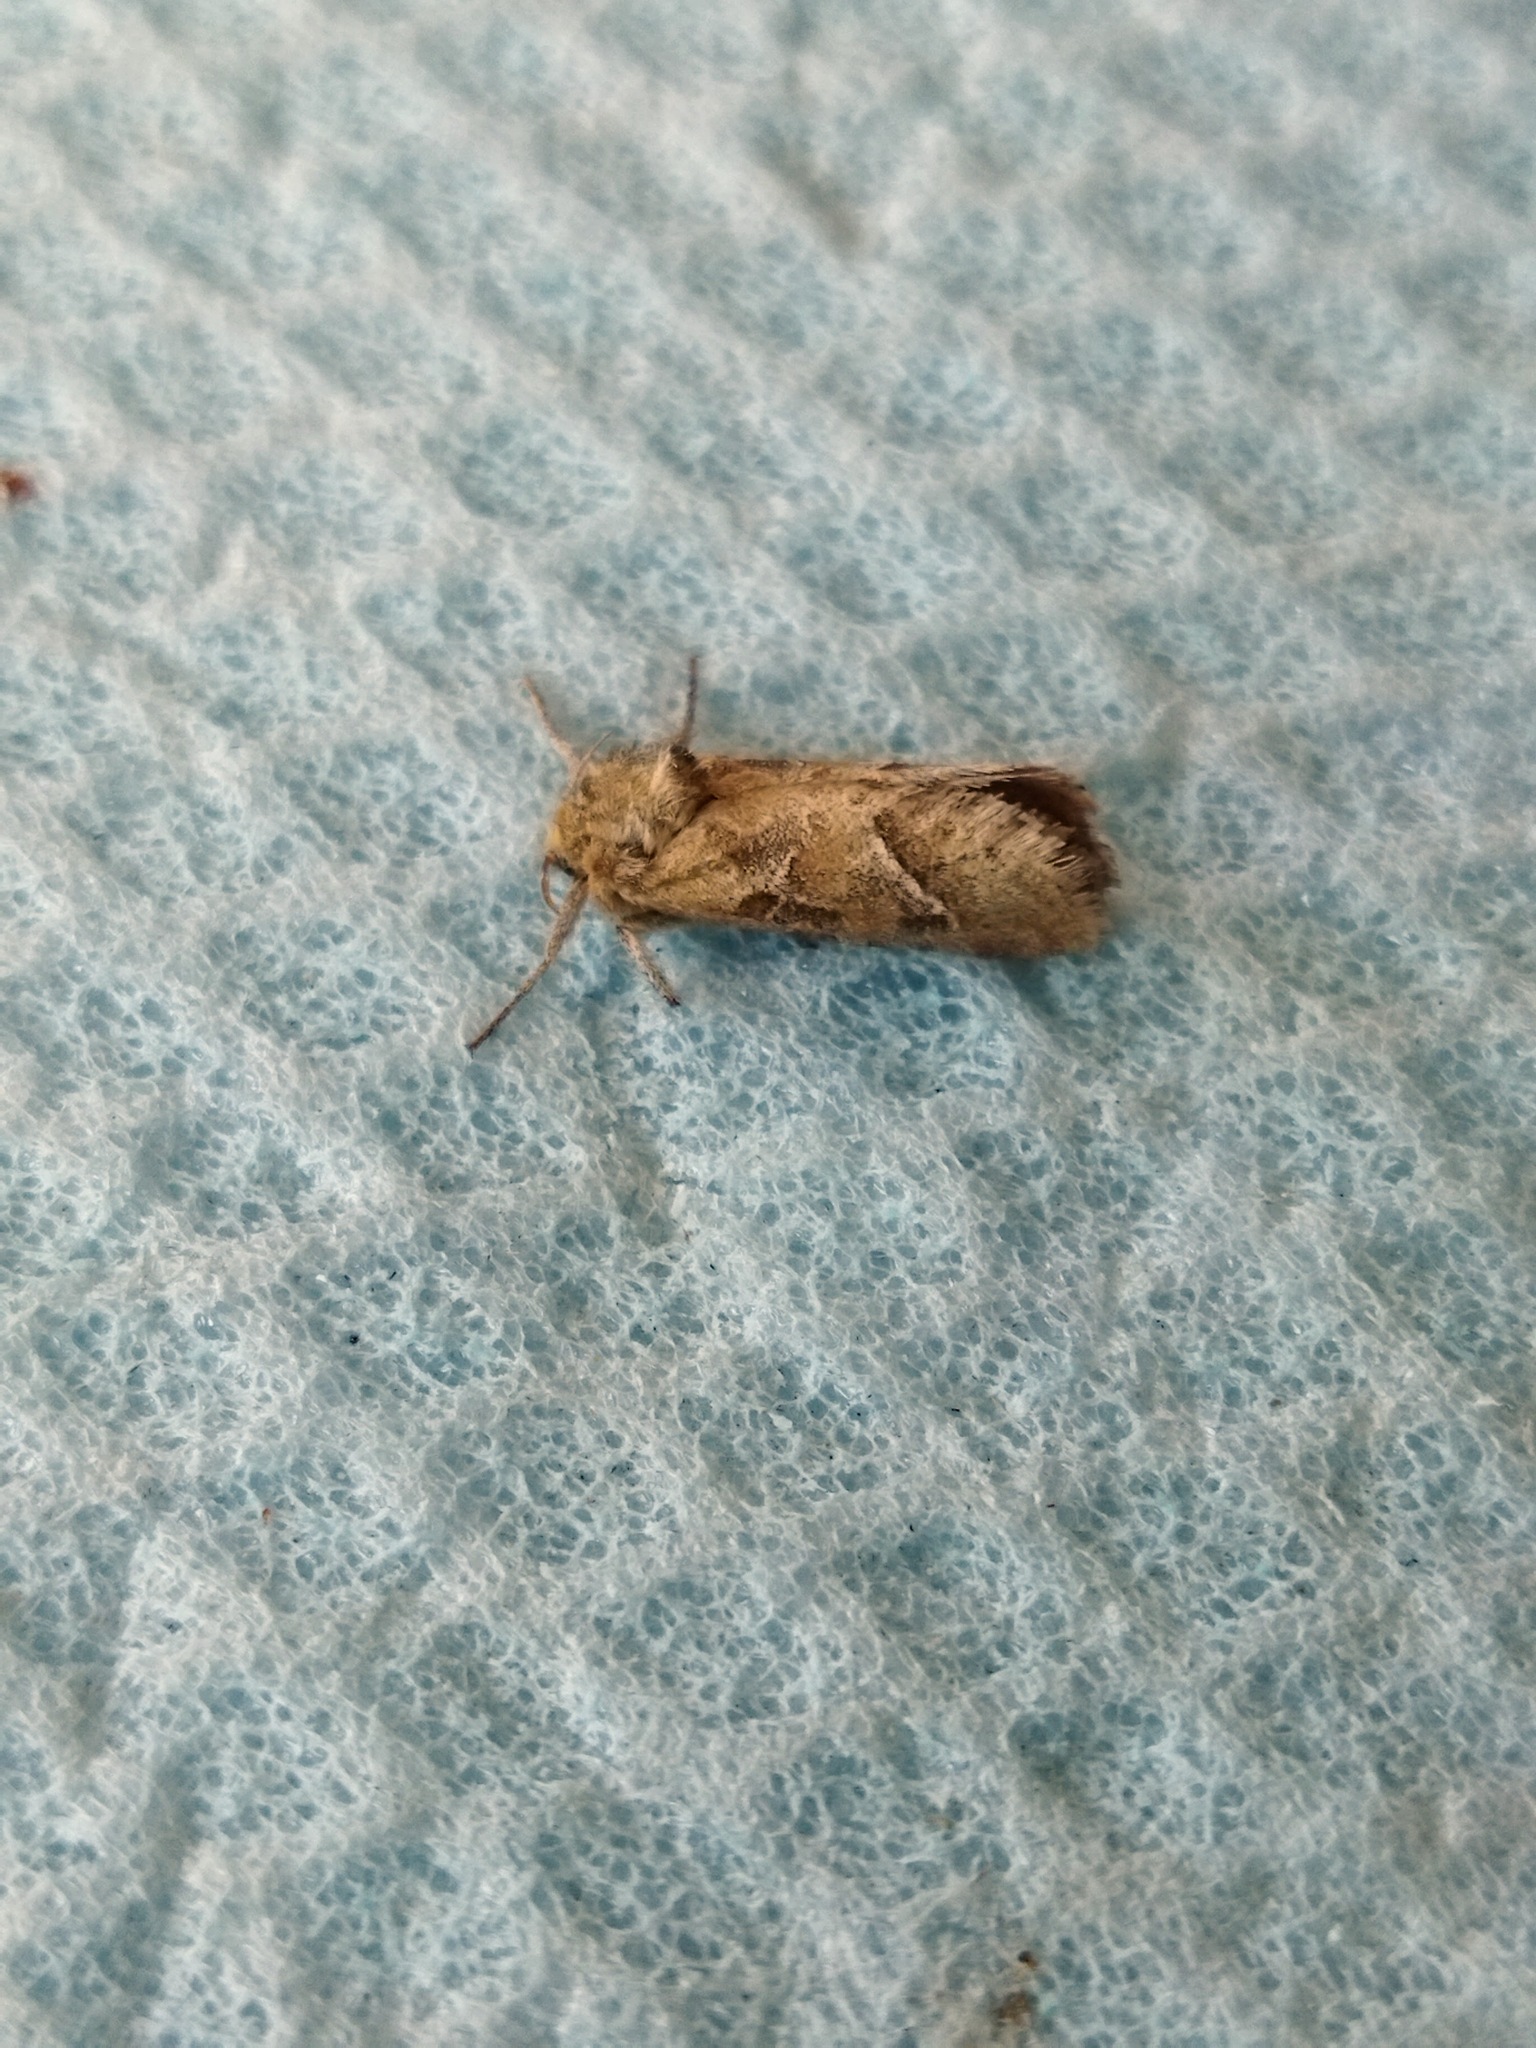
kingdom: Animalia
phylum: Arthropoda
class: Insecta
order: Lepidoptera
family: Hepialidae
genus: Triodia
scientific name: Triodia sylvina
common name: Orange swift
